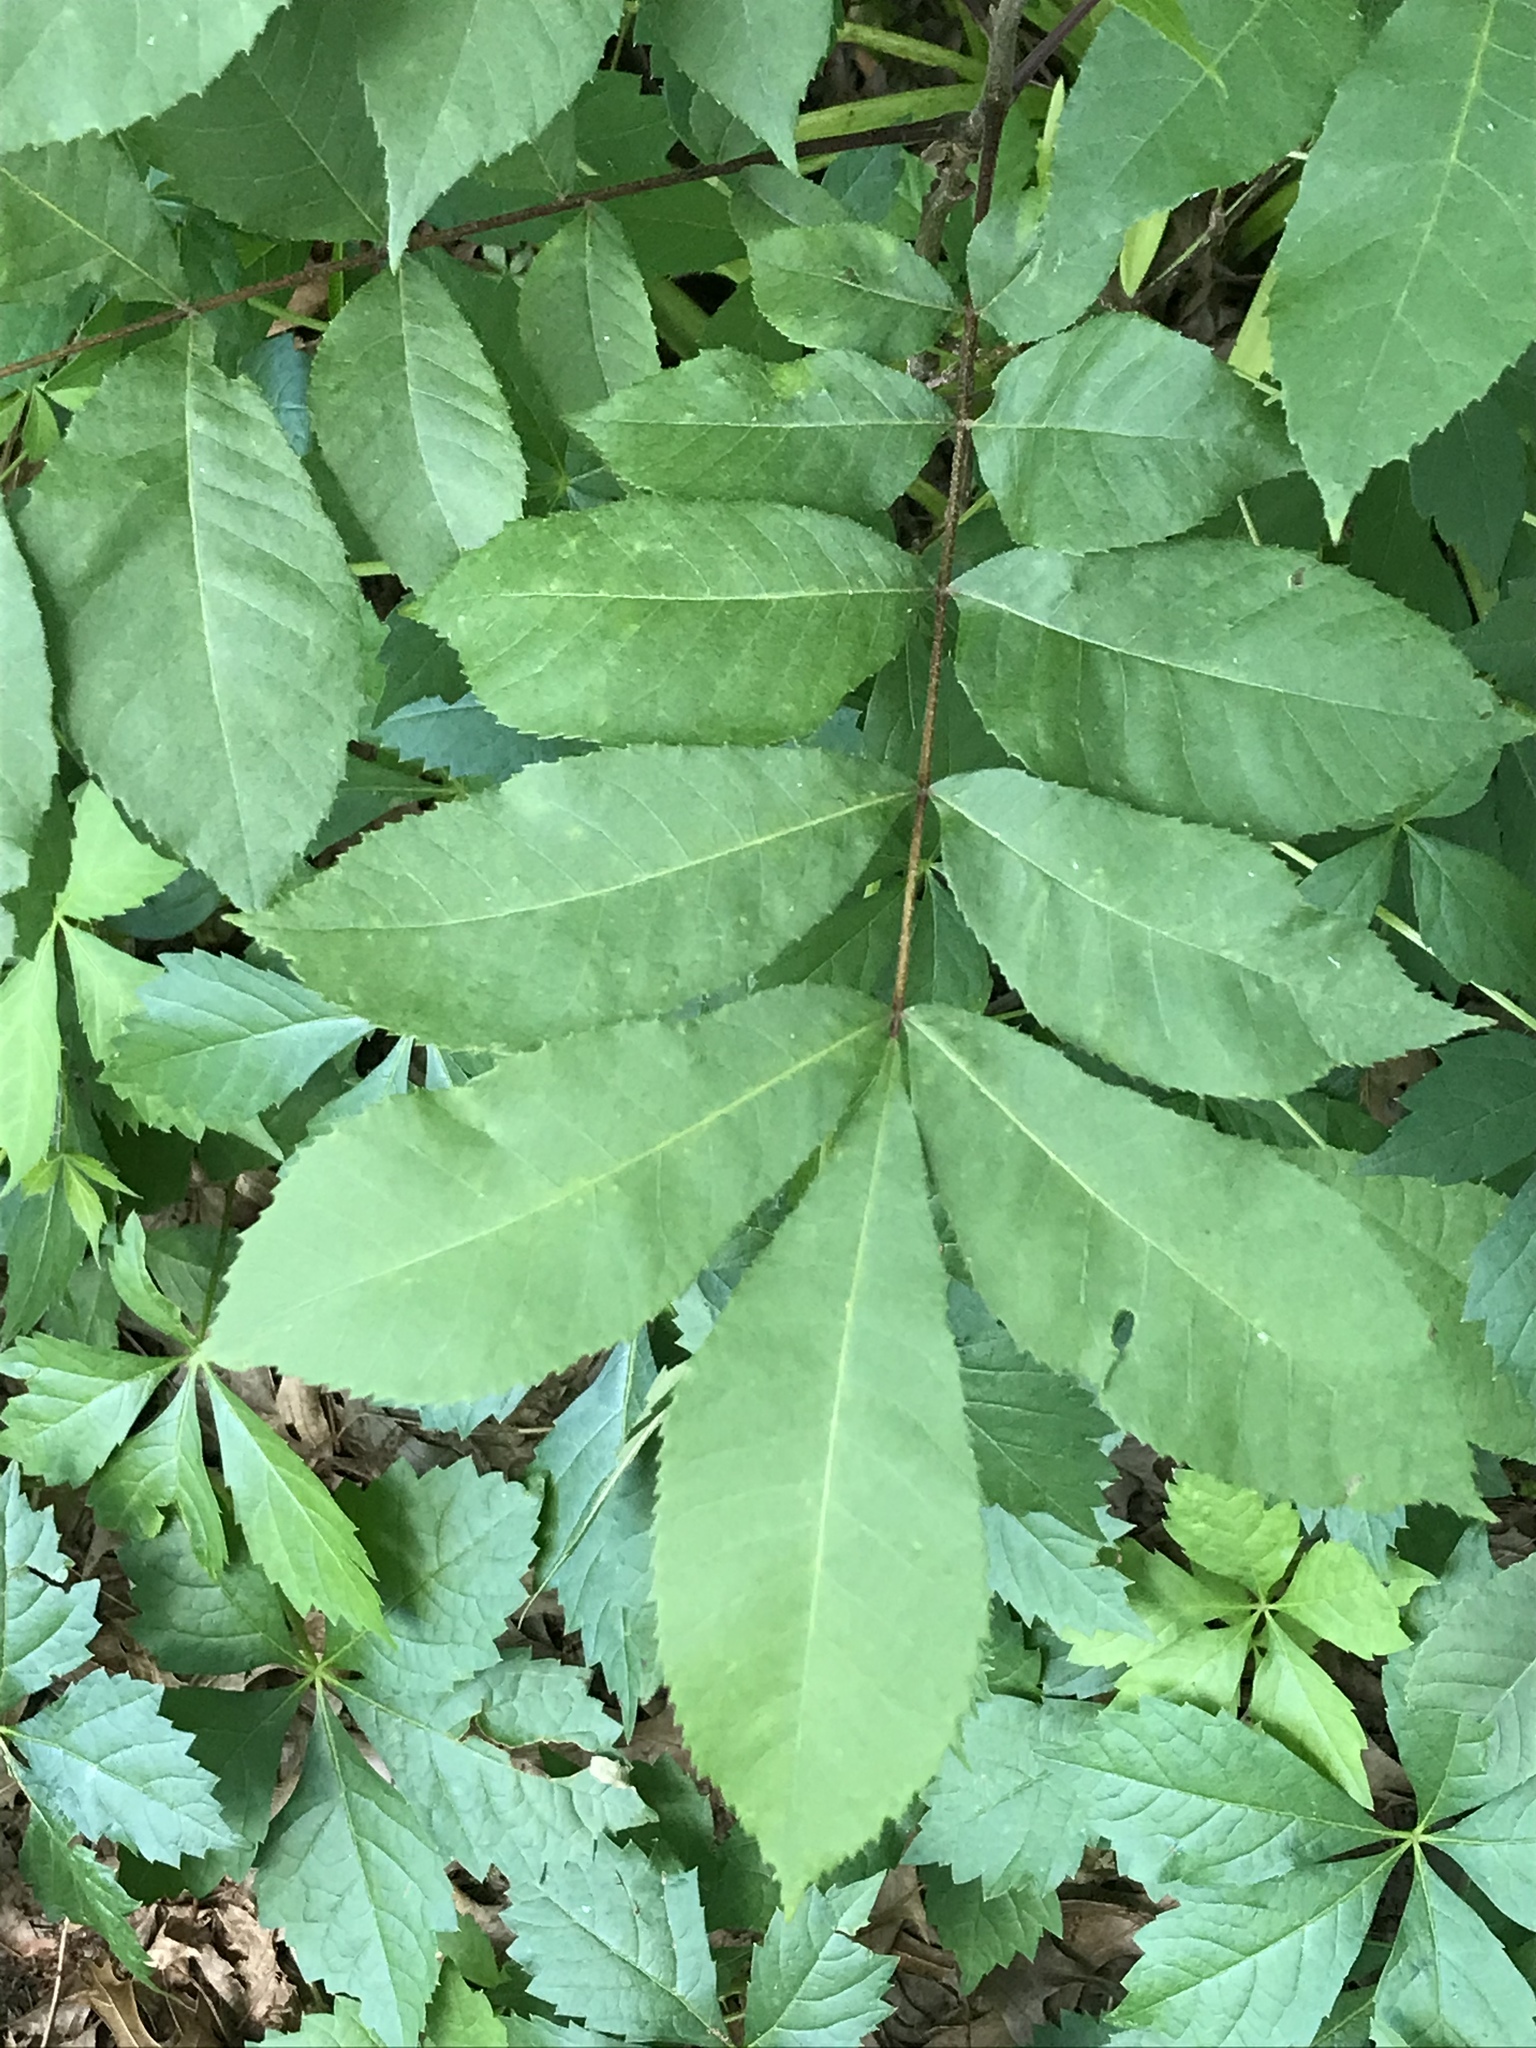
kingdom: Plantae
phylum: Tracheophyta
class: Magnoliopsida
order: Fagales
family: Juglandaceae
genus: Carya
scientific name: Carya illinoinensis
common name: Pecan
